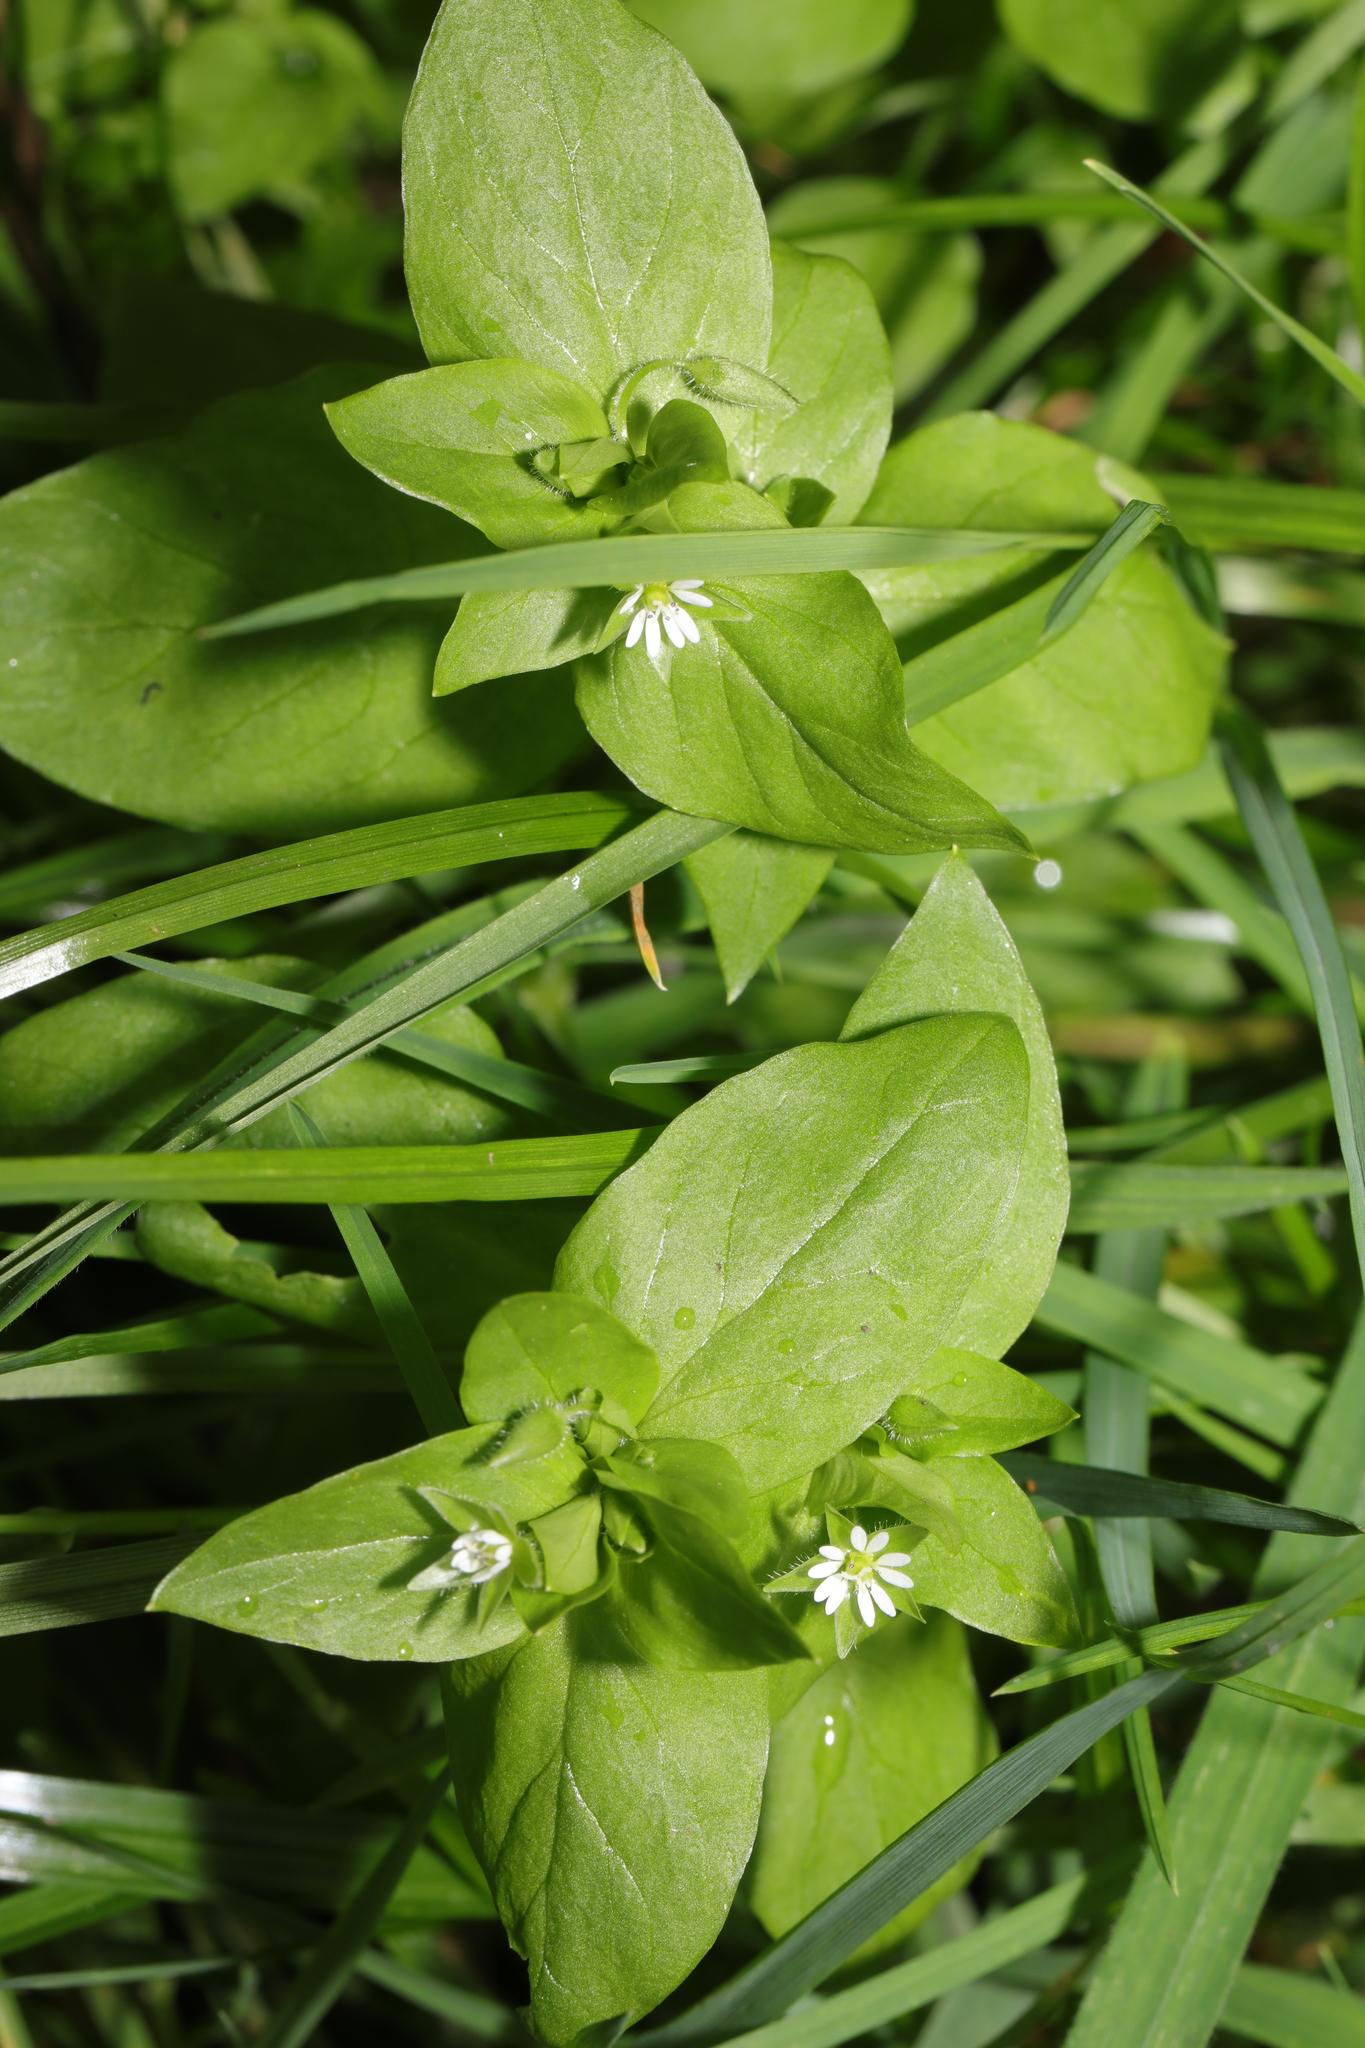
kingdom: Plantae
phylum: Tracheophyta
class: Magnoliopsida
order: Caryophyllales
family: Caryophyllaceae
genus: Stellaria
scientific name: Stellaria media
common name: Common chickweed
